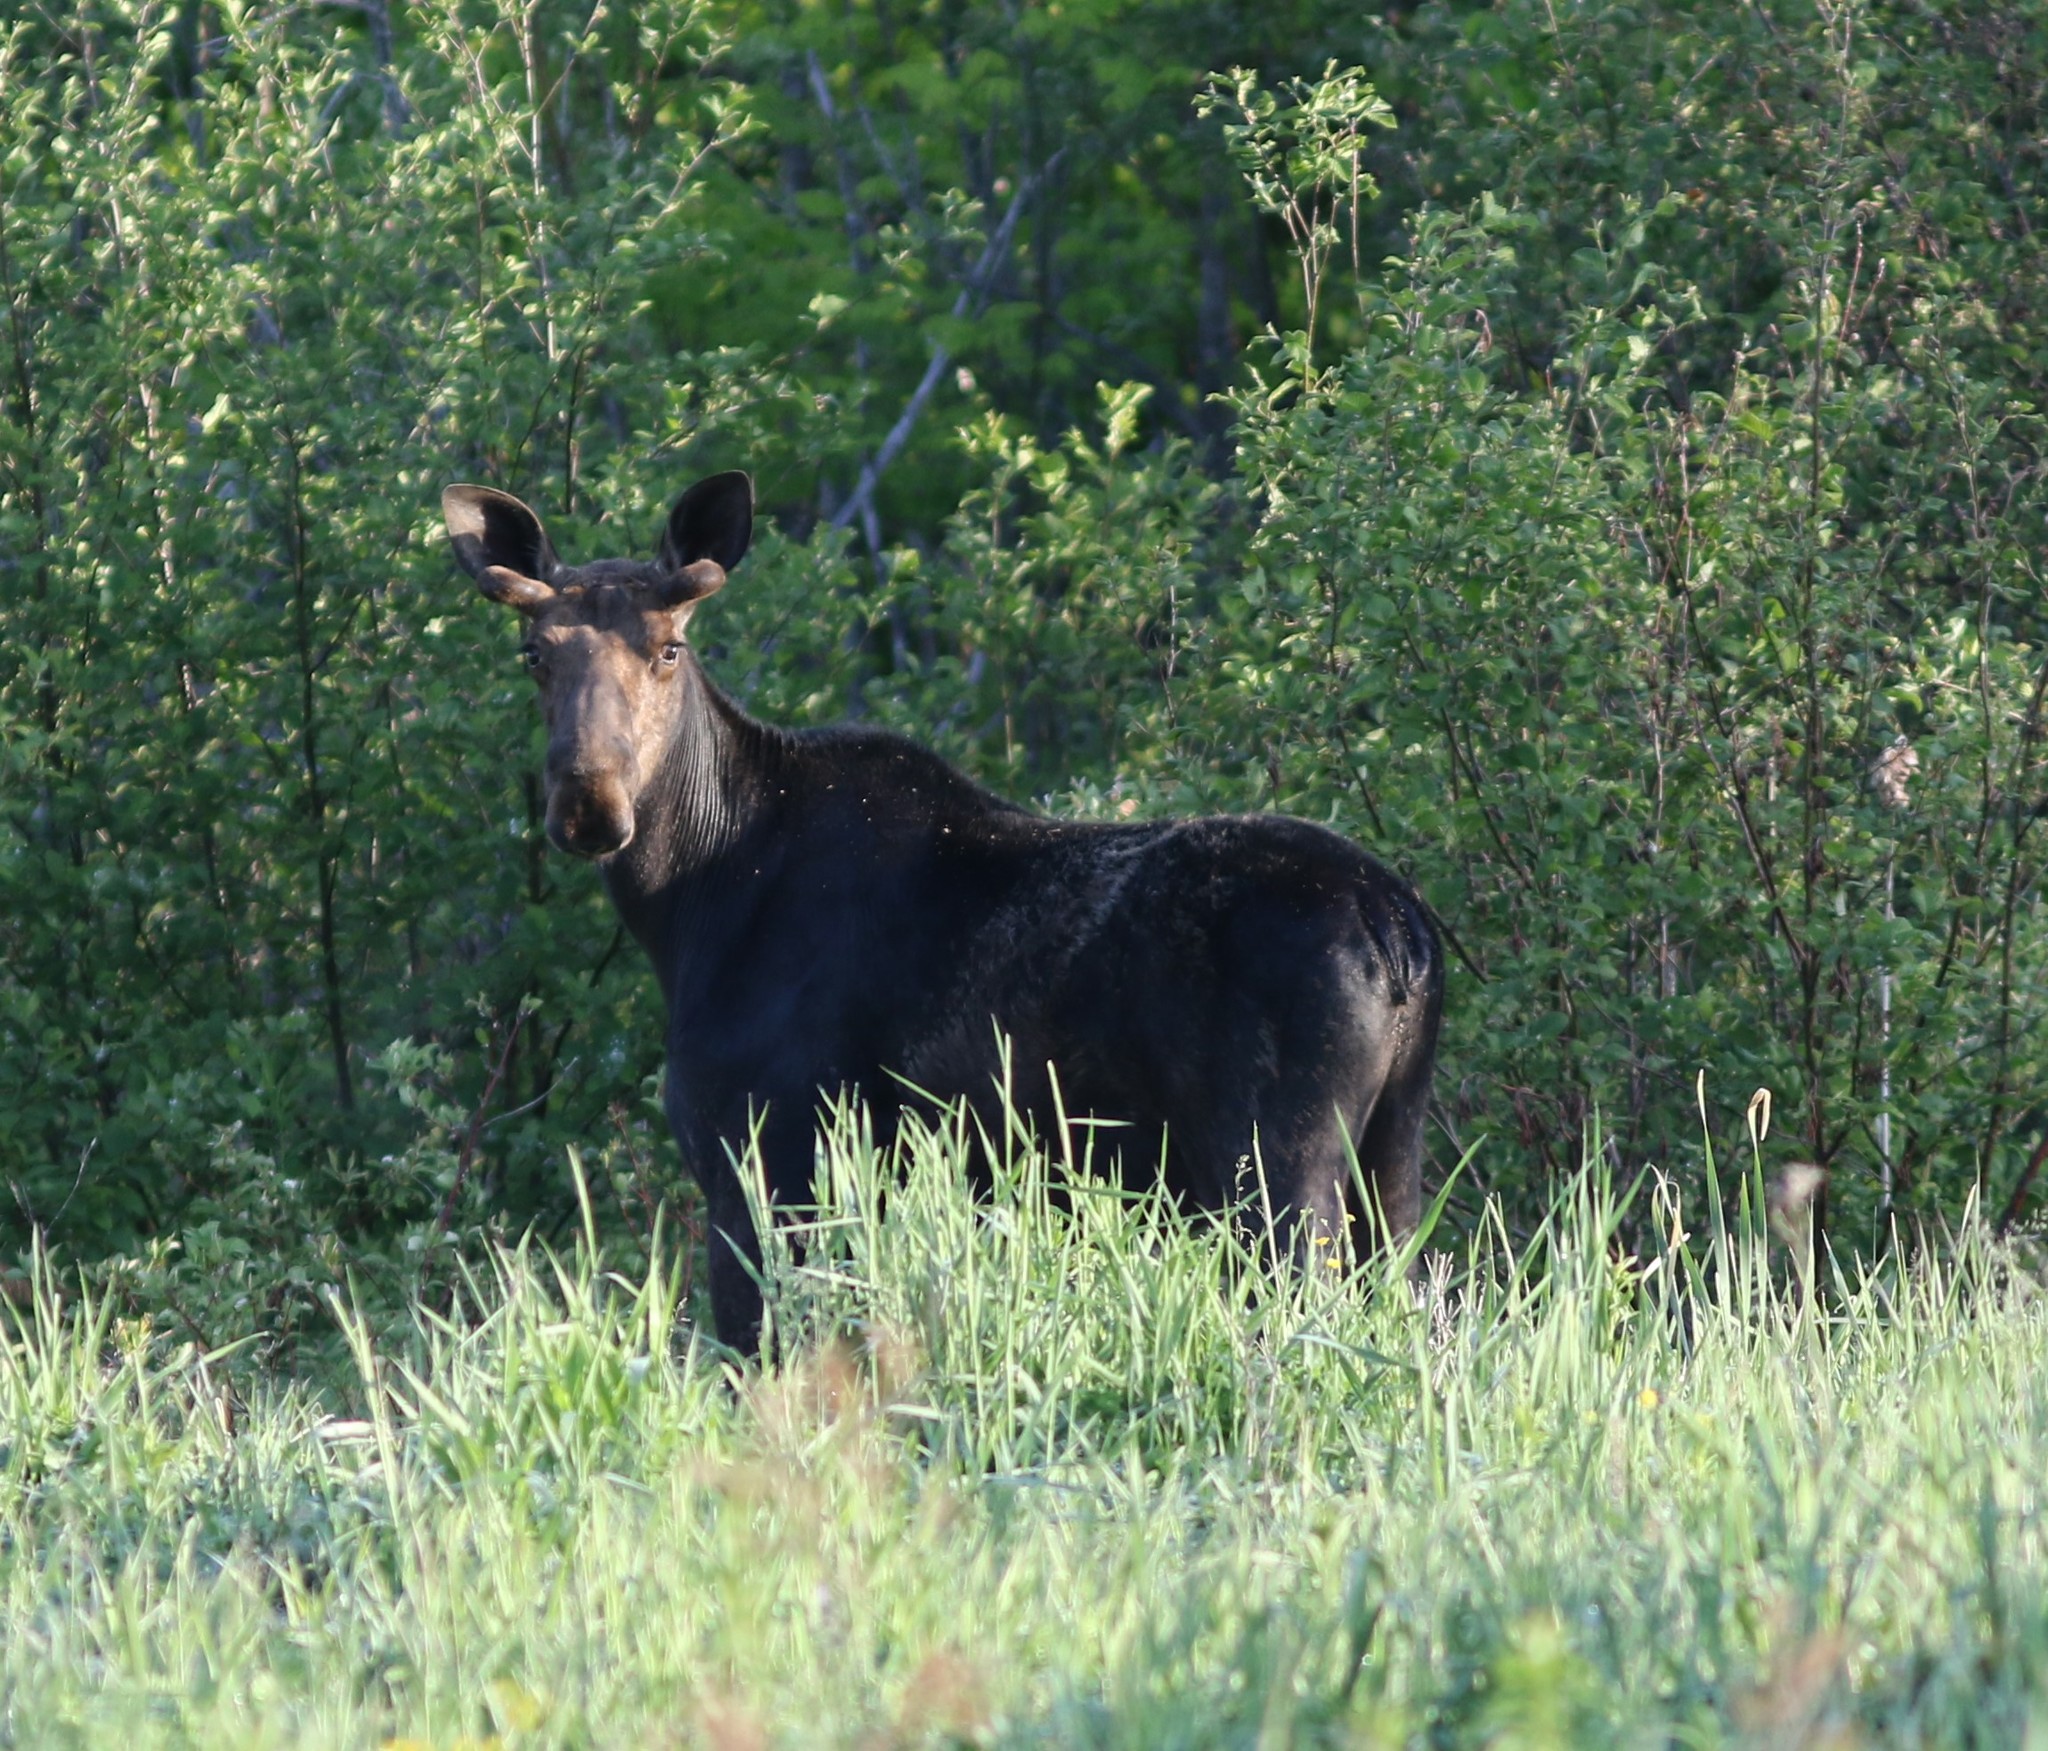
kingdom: Animalia
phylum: Chordata
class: Mammalia
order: Artiodactyla
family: Cervidae
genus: Alces
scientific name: Alces alces
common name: Moose
